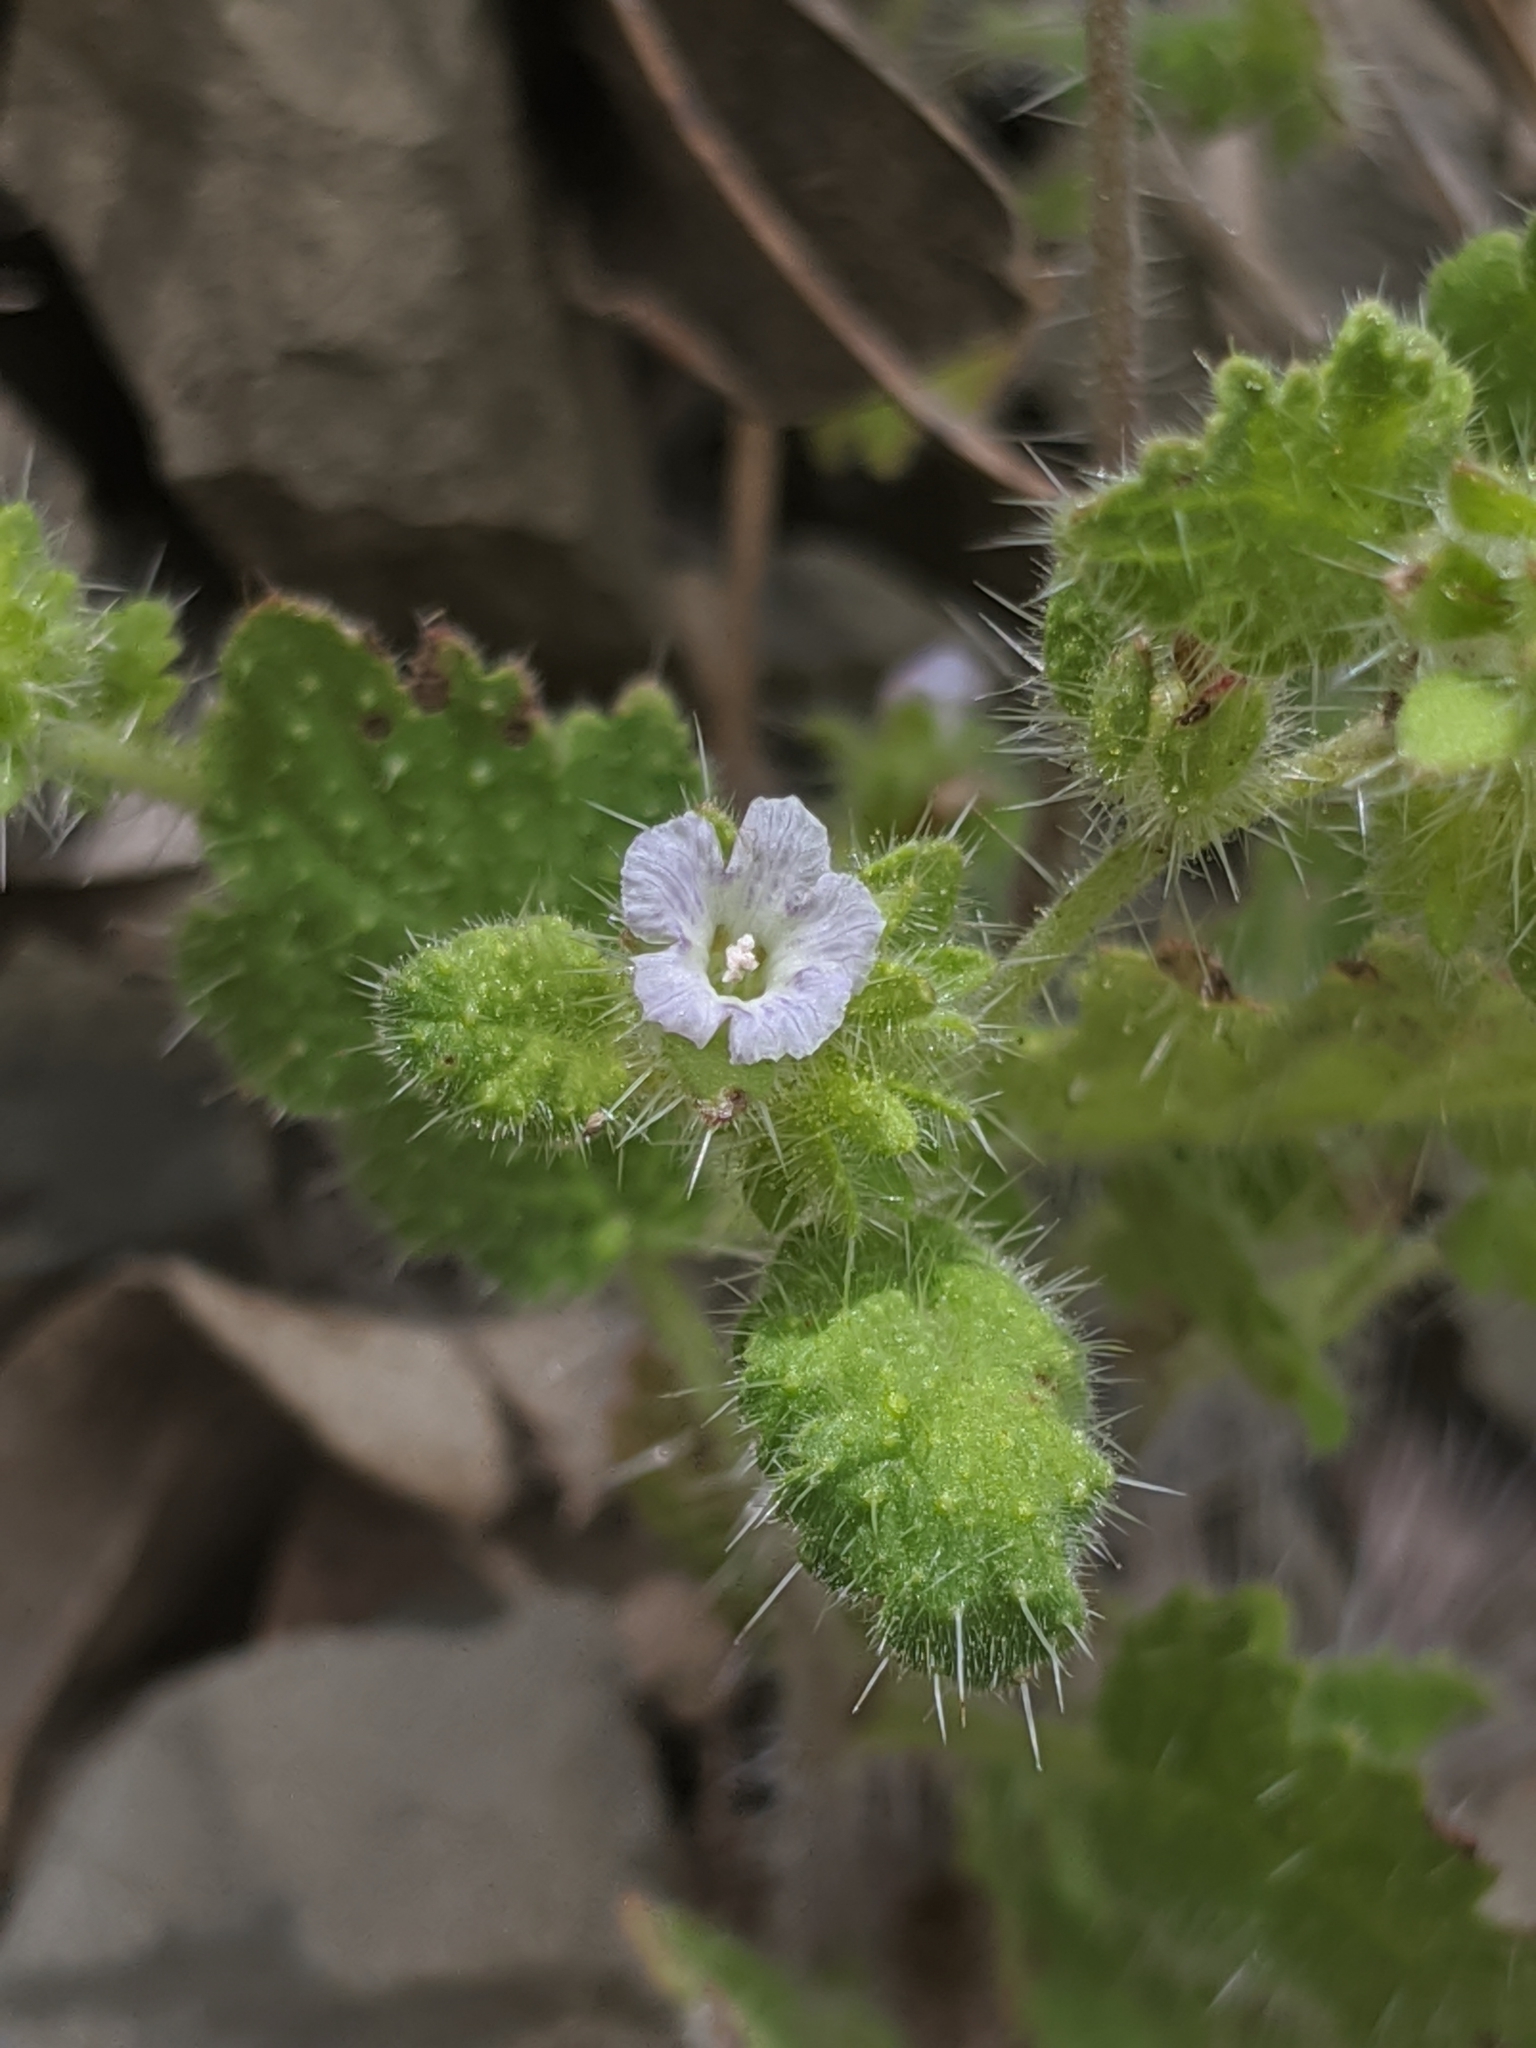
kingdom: Plantae
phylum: Tracheophyta
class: Magnoliopsida
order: Boraginales
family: Hydrophyllaceae
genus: Phacelia
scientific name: Phacelia rattanii
